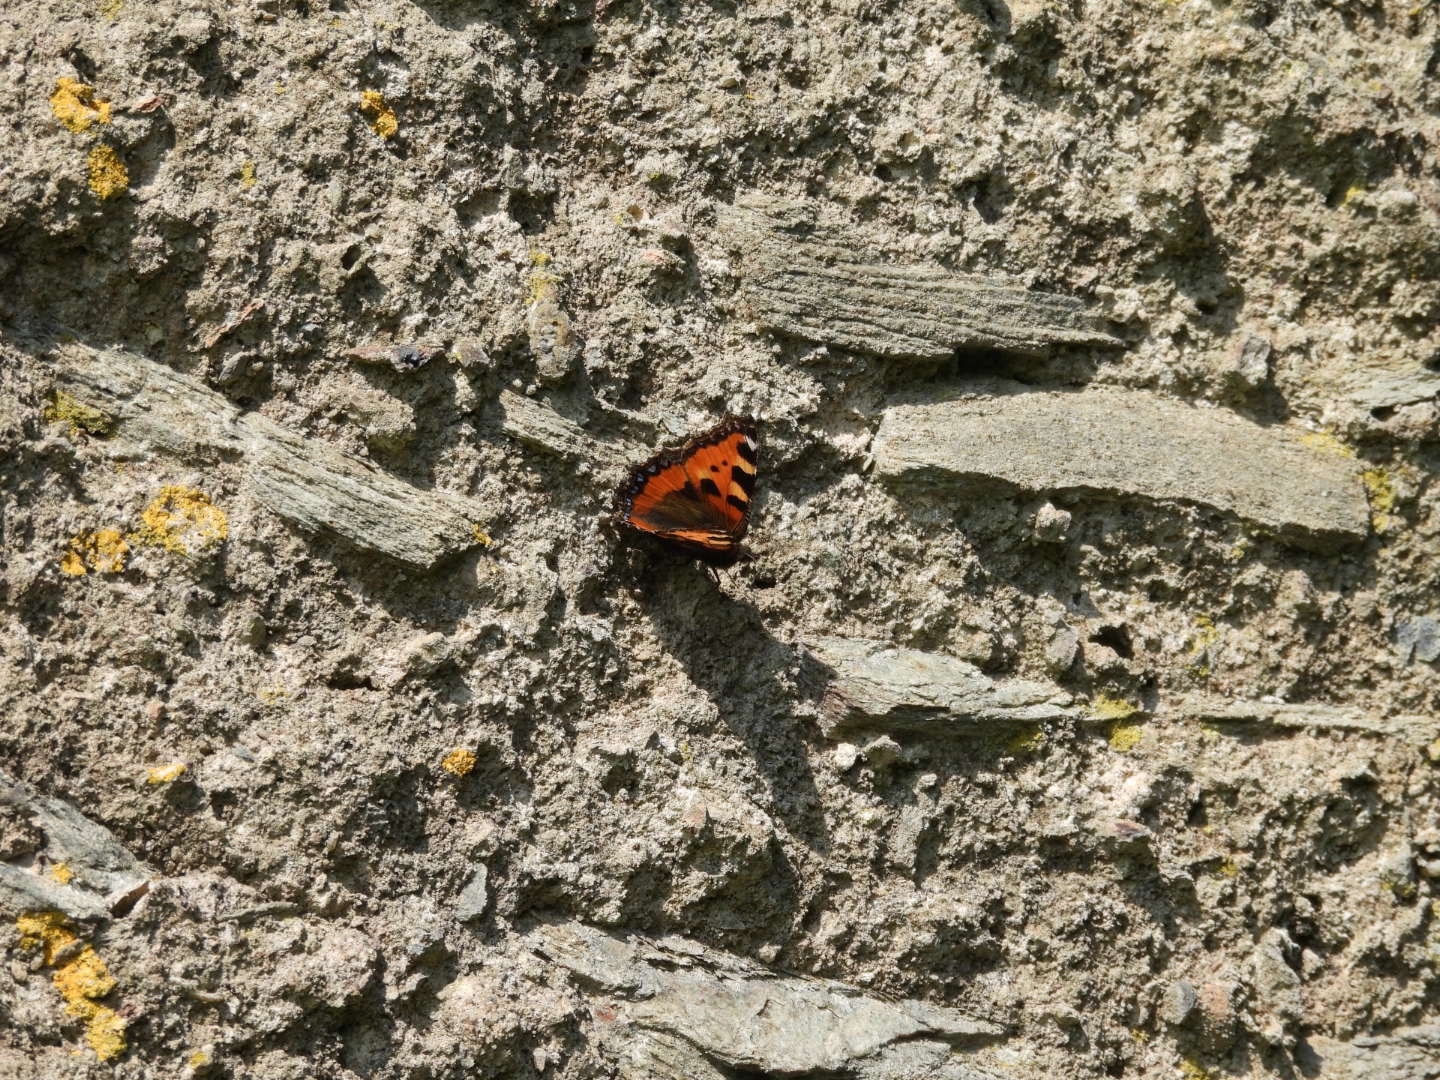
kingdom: Animalia
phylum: Arthropoda
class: Insecta
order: Lepidoptera
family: Nymphalidae
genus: Aglais
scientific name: Aglais urticae
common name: Small tortoiseshell
